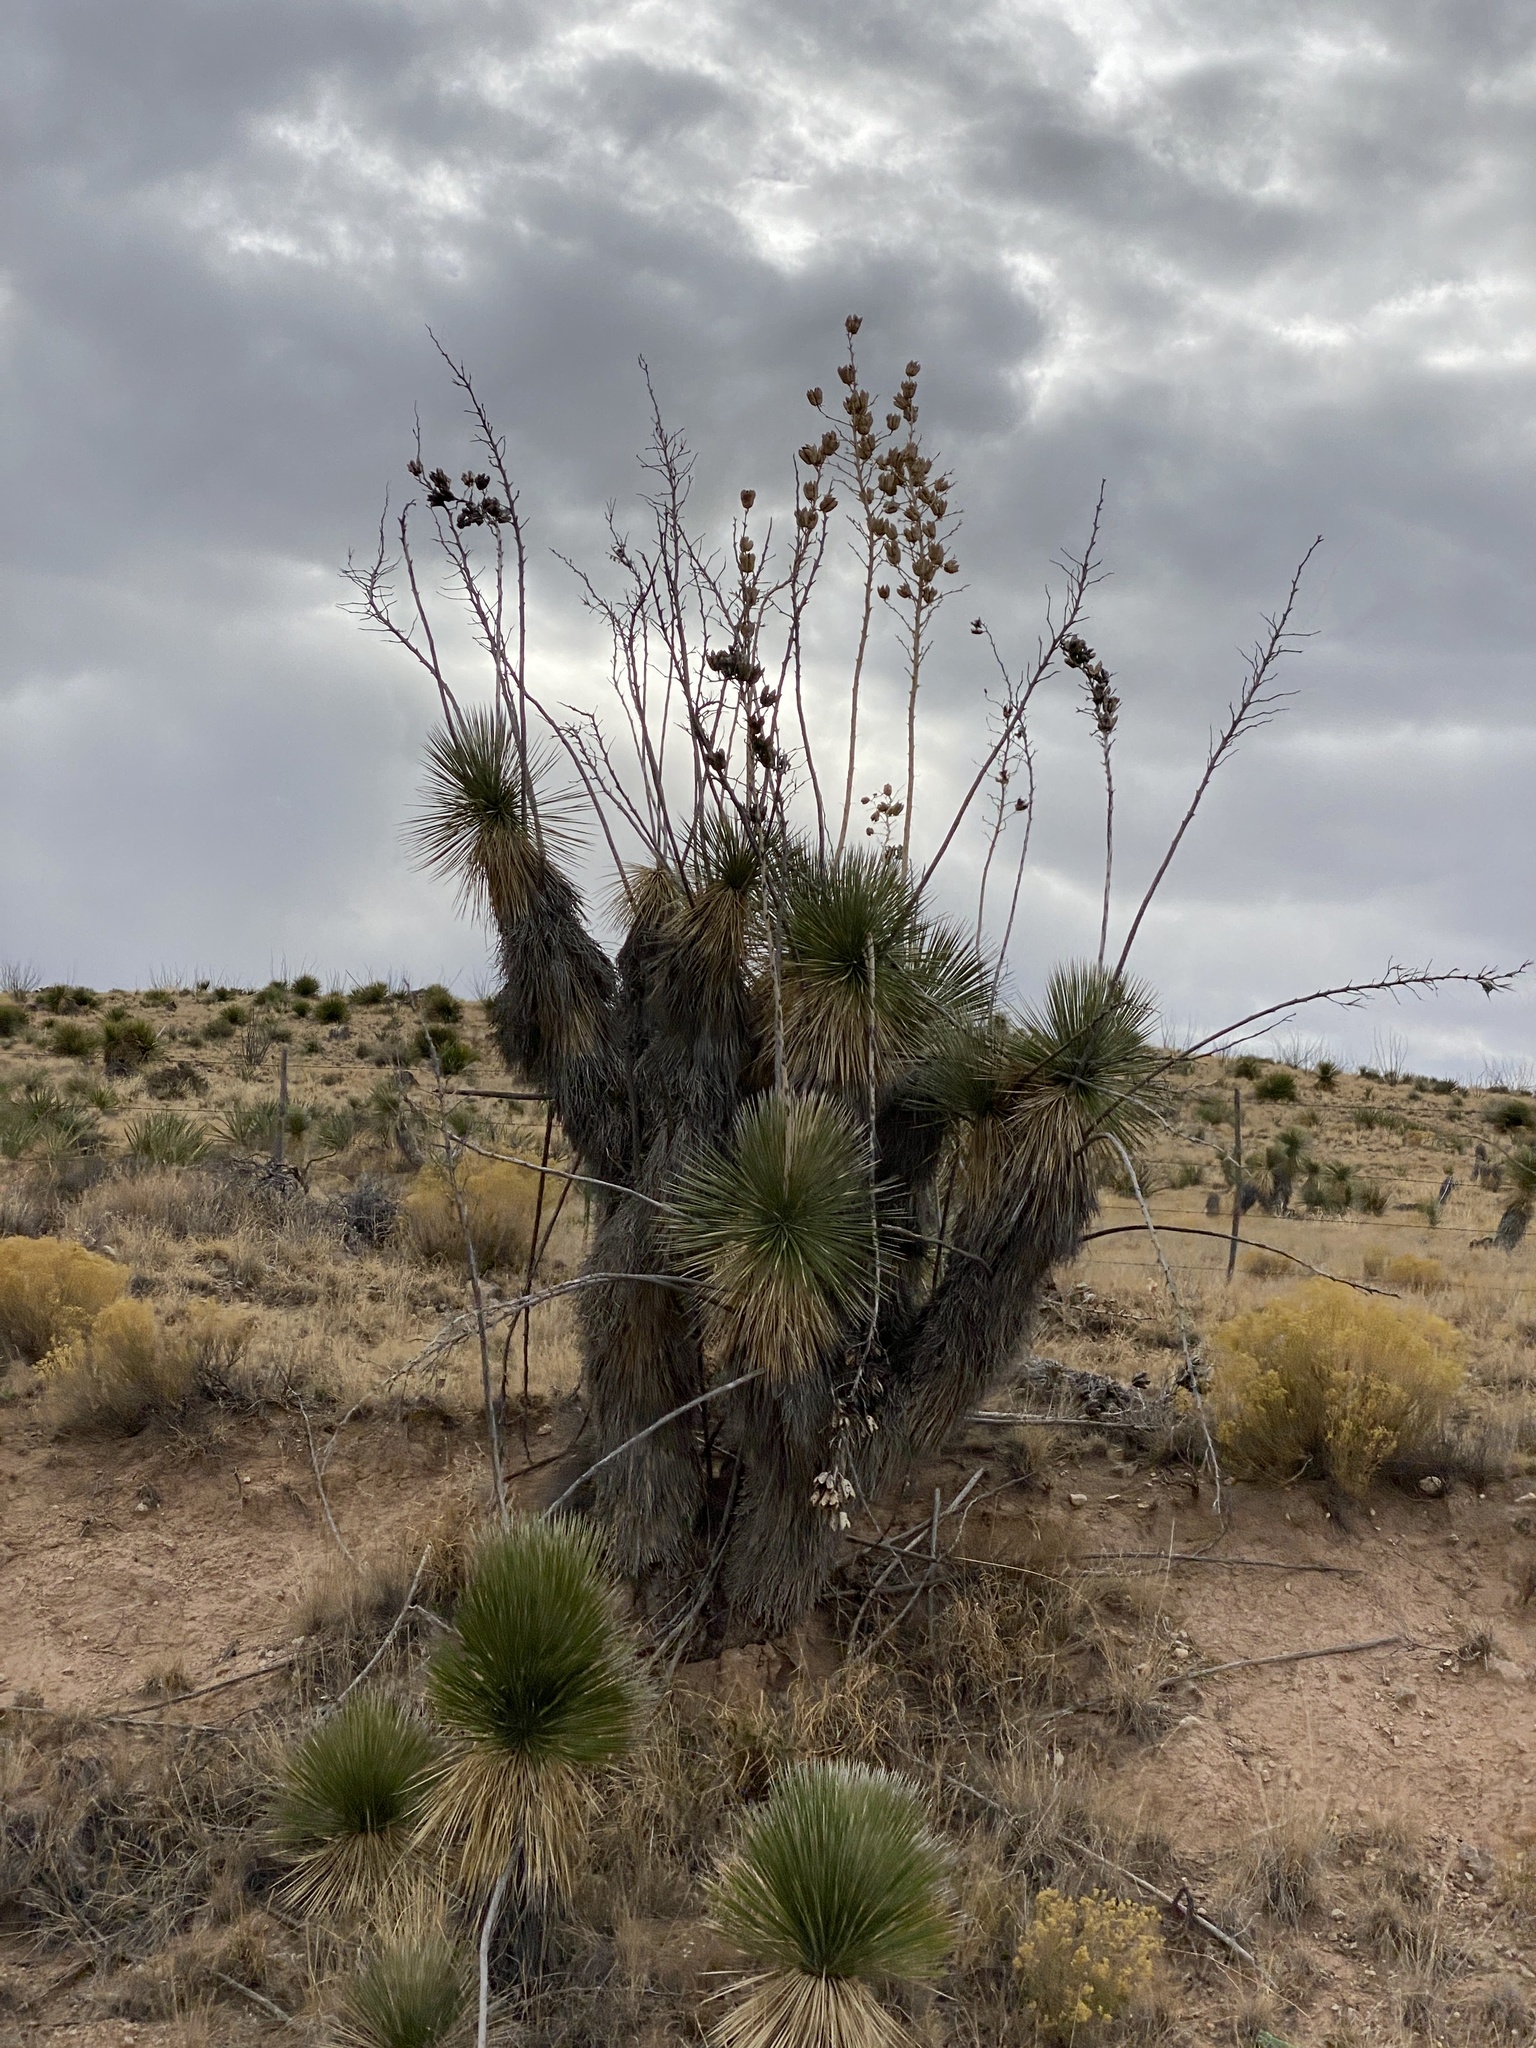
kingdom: Plantae
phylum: Tracheophyta
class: Liliopsida
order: Asparagales
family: Asparagaceae
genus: Yucca
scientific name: Yucca elata
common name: Palmella
